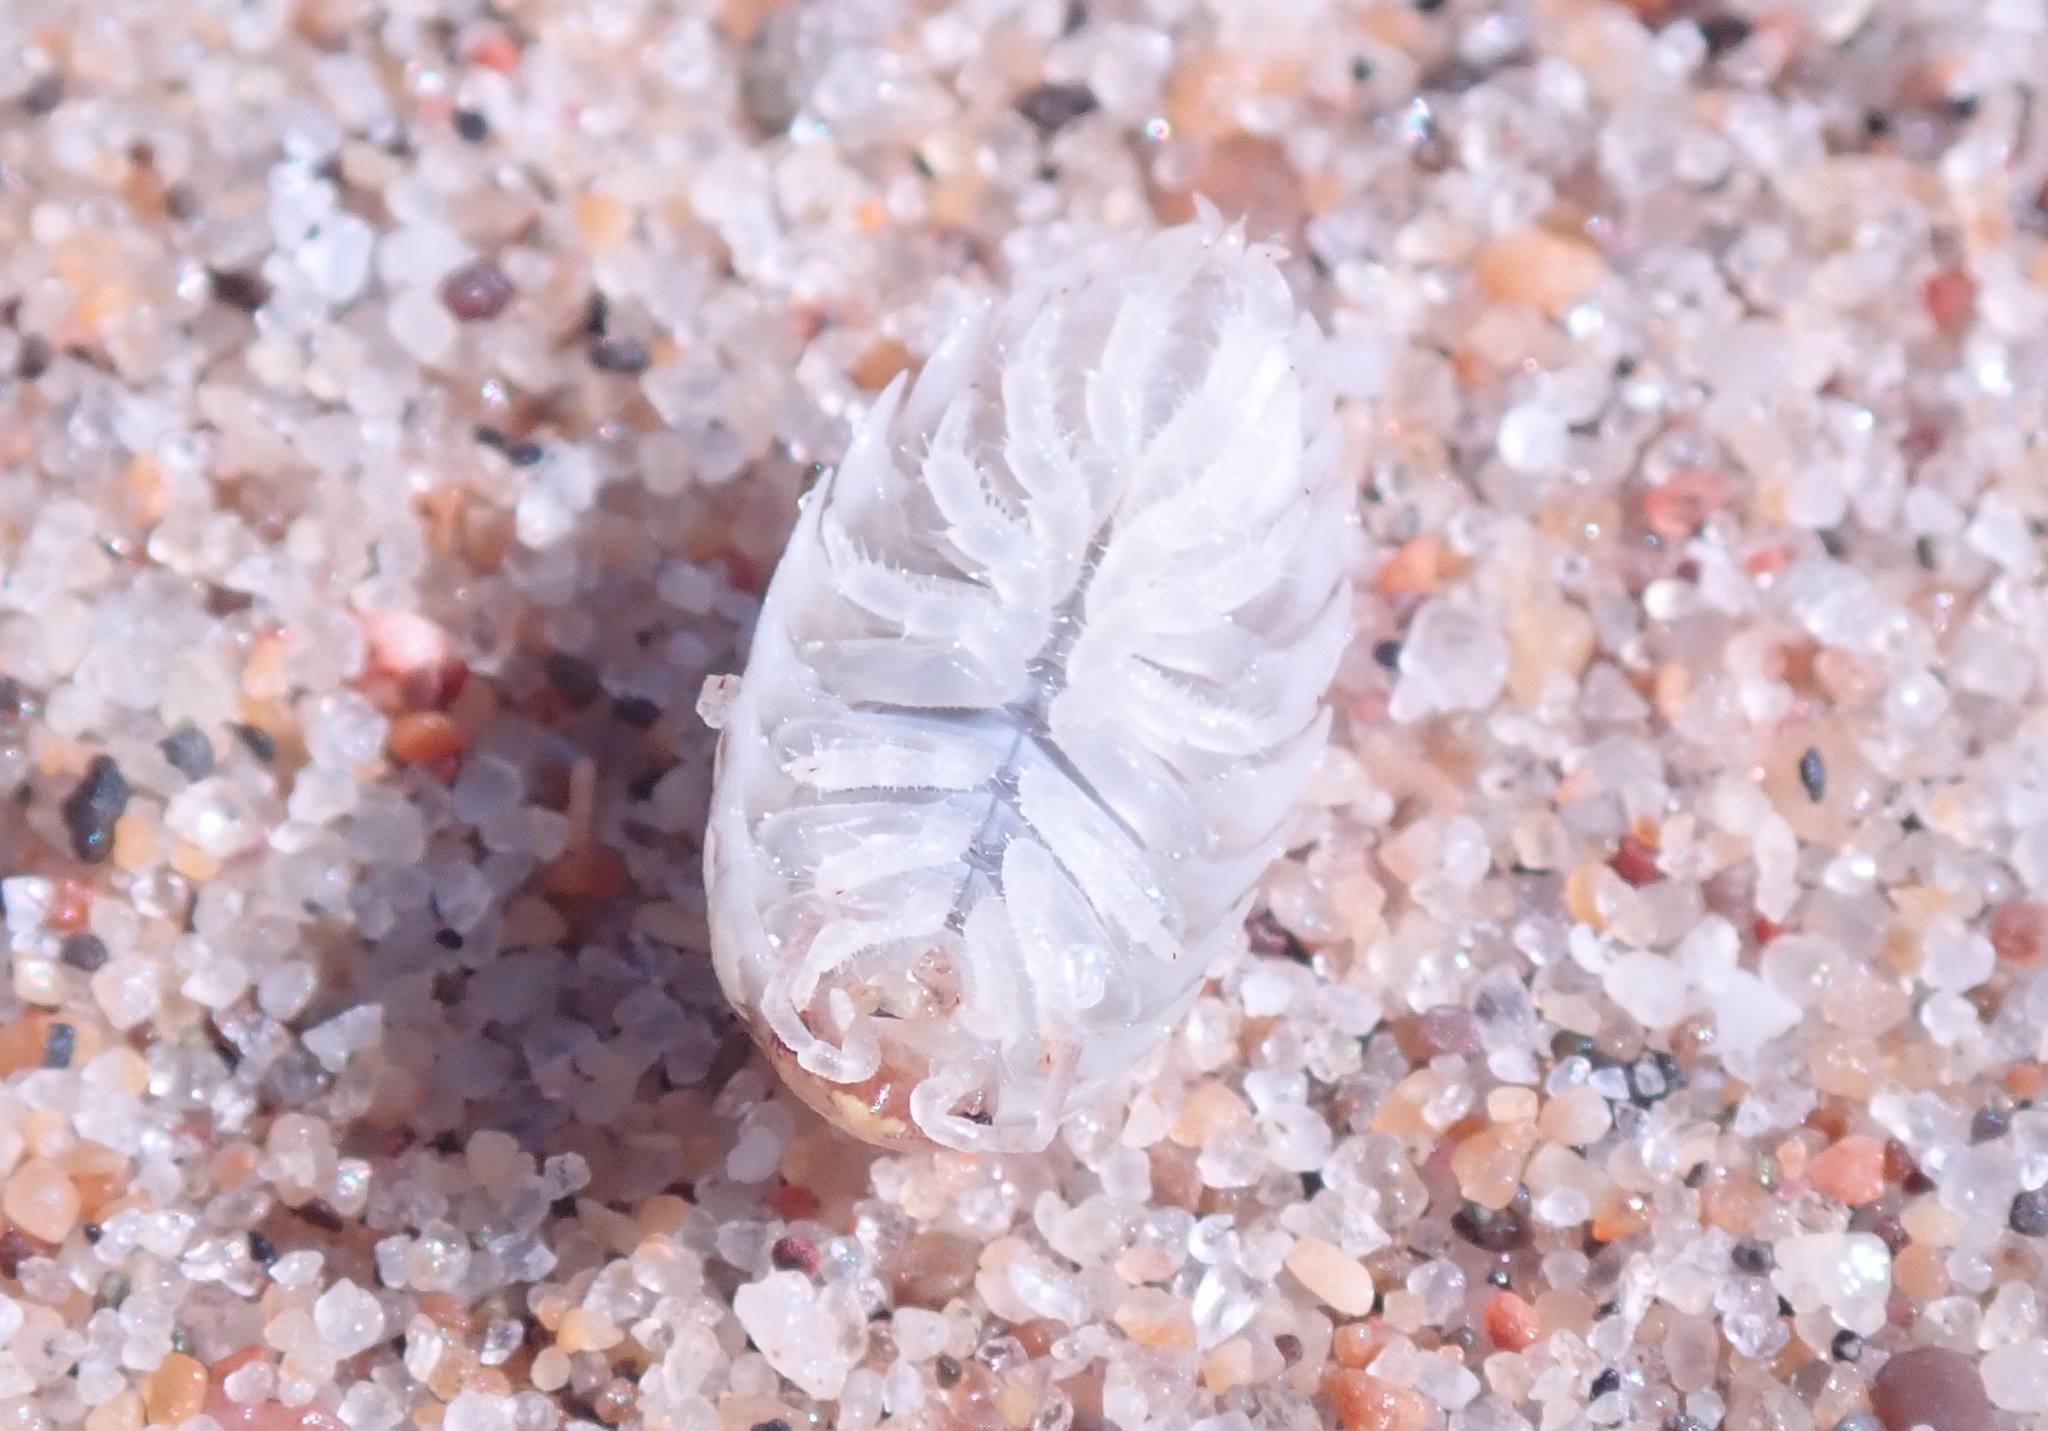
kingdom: Animalia
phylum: Arthropoda
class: Malacostraca
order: Isopoda
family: Alloniscidae
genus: Alloniscus
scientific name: Alloniscus perconvexus
